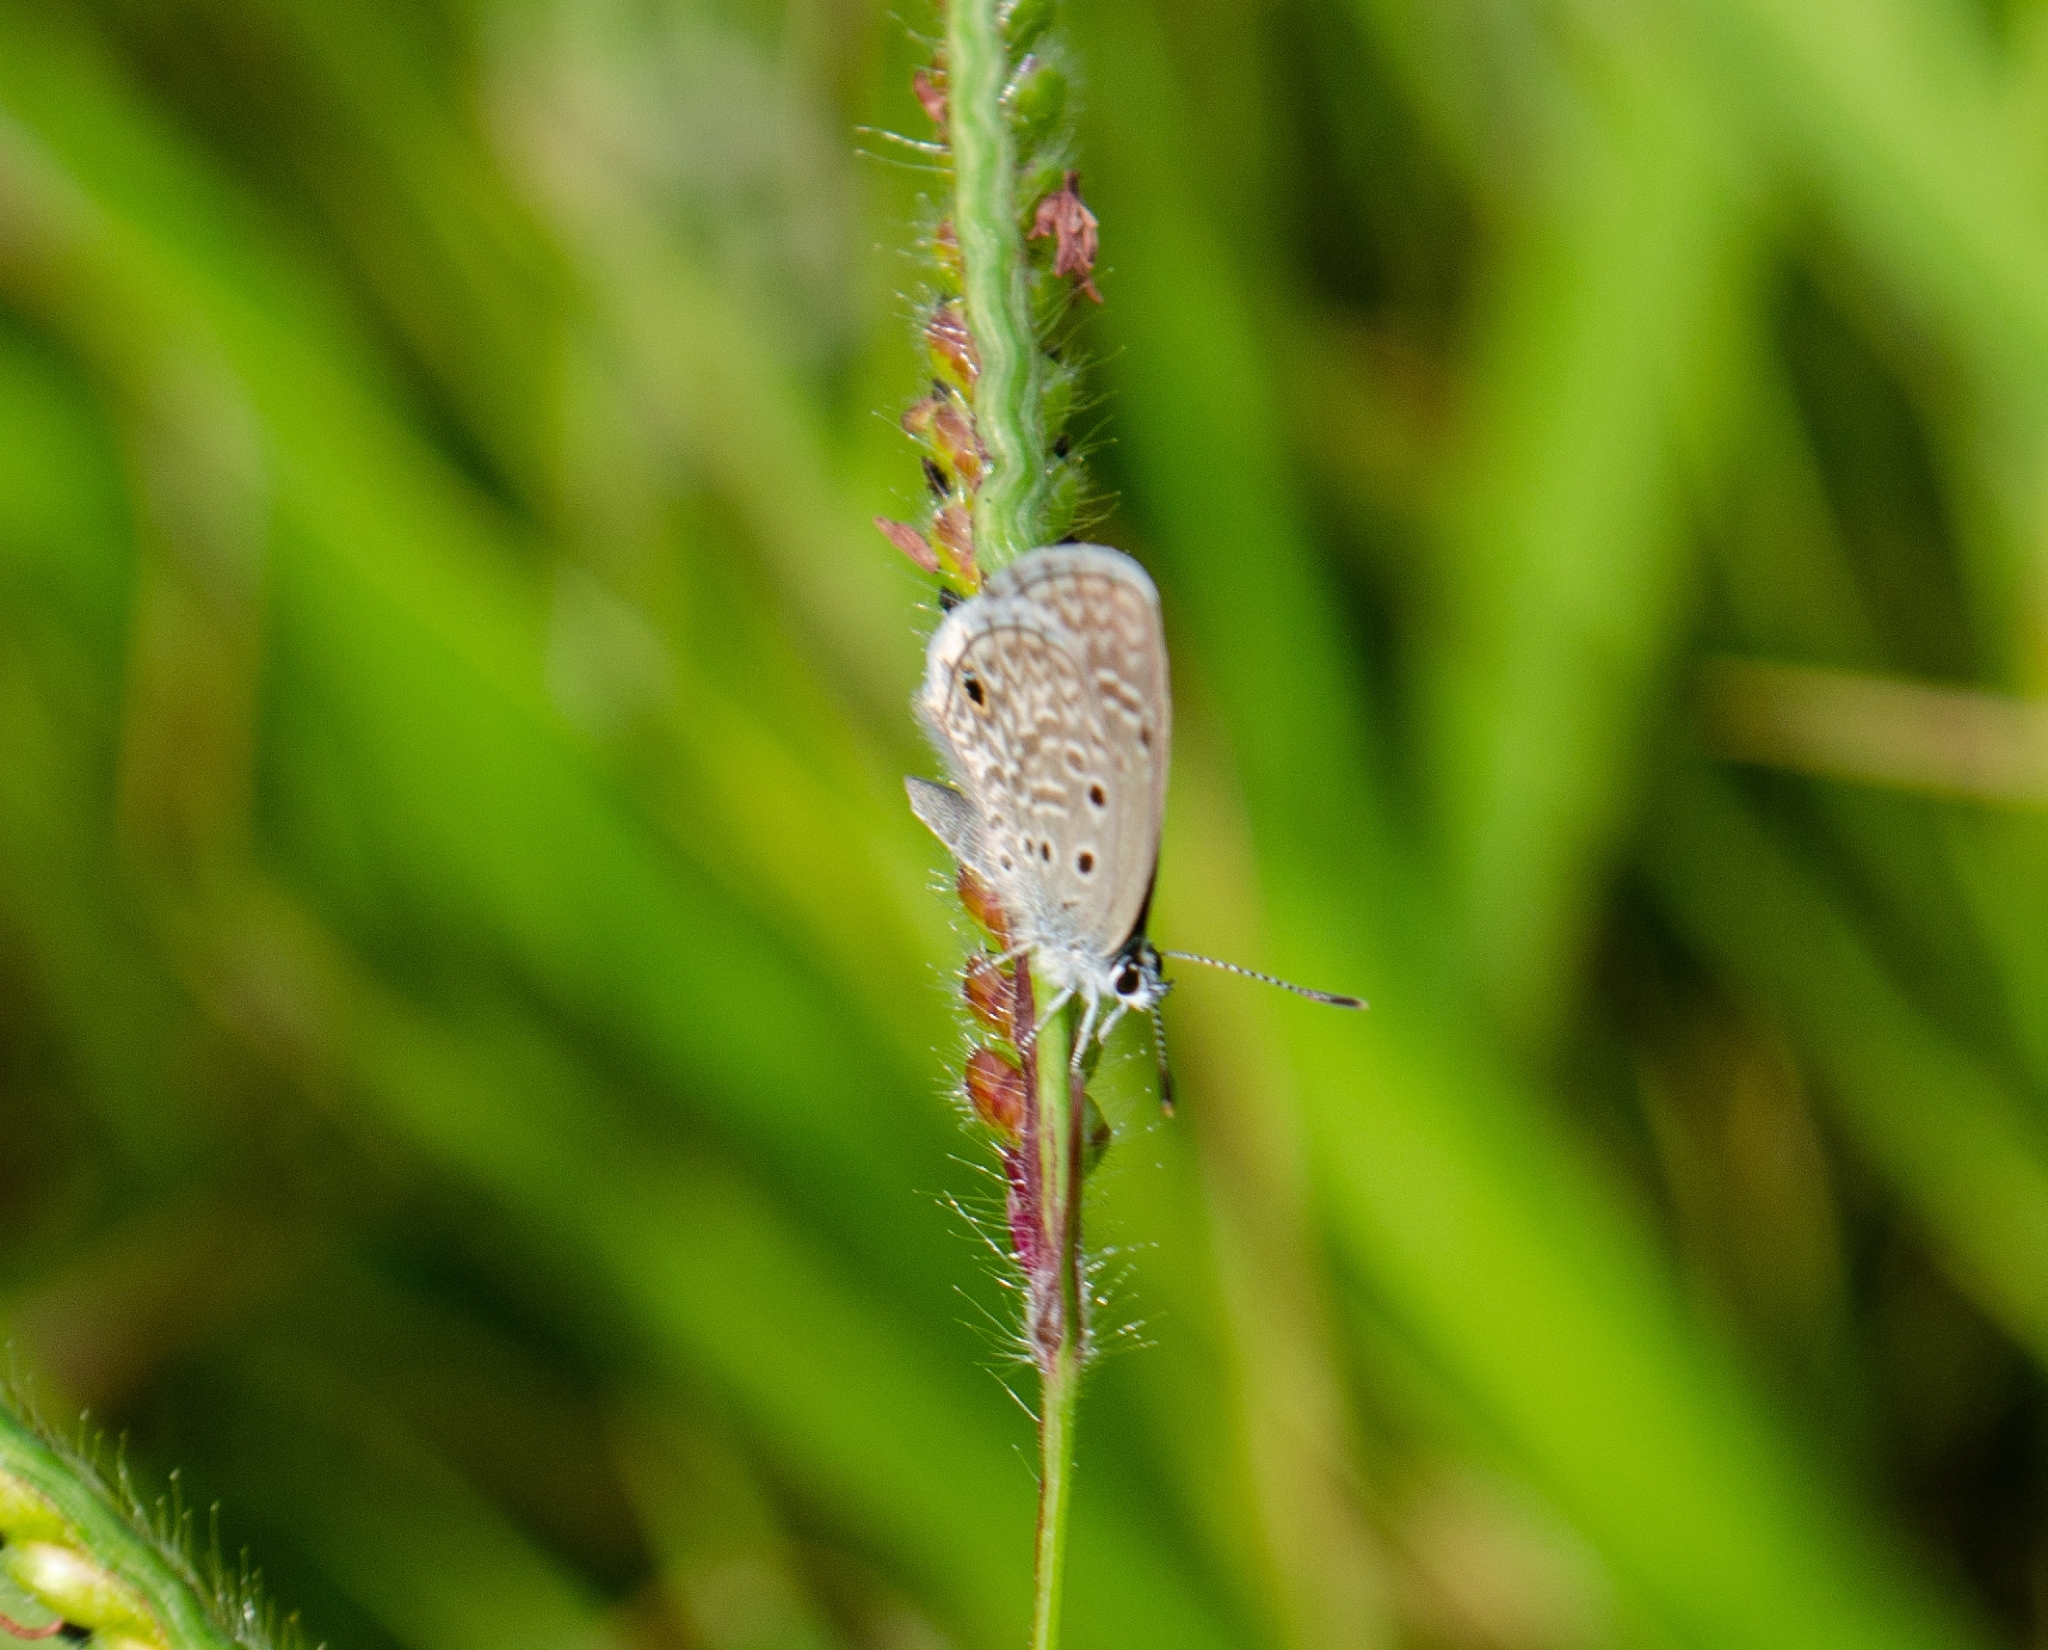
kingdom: Animalia
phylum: Arthropoda
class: Insecta
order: Lepidoptera
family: Lycaenidae
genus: Hemiargus
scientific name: Hemiargus hanno
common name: Common blue
